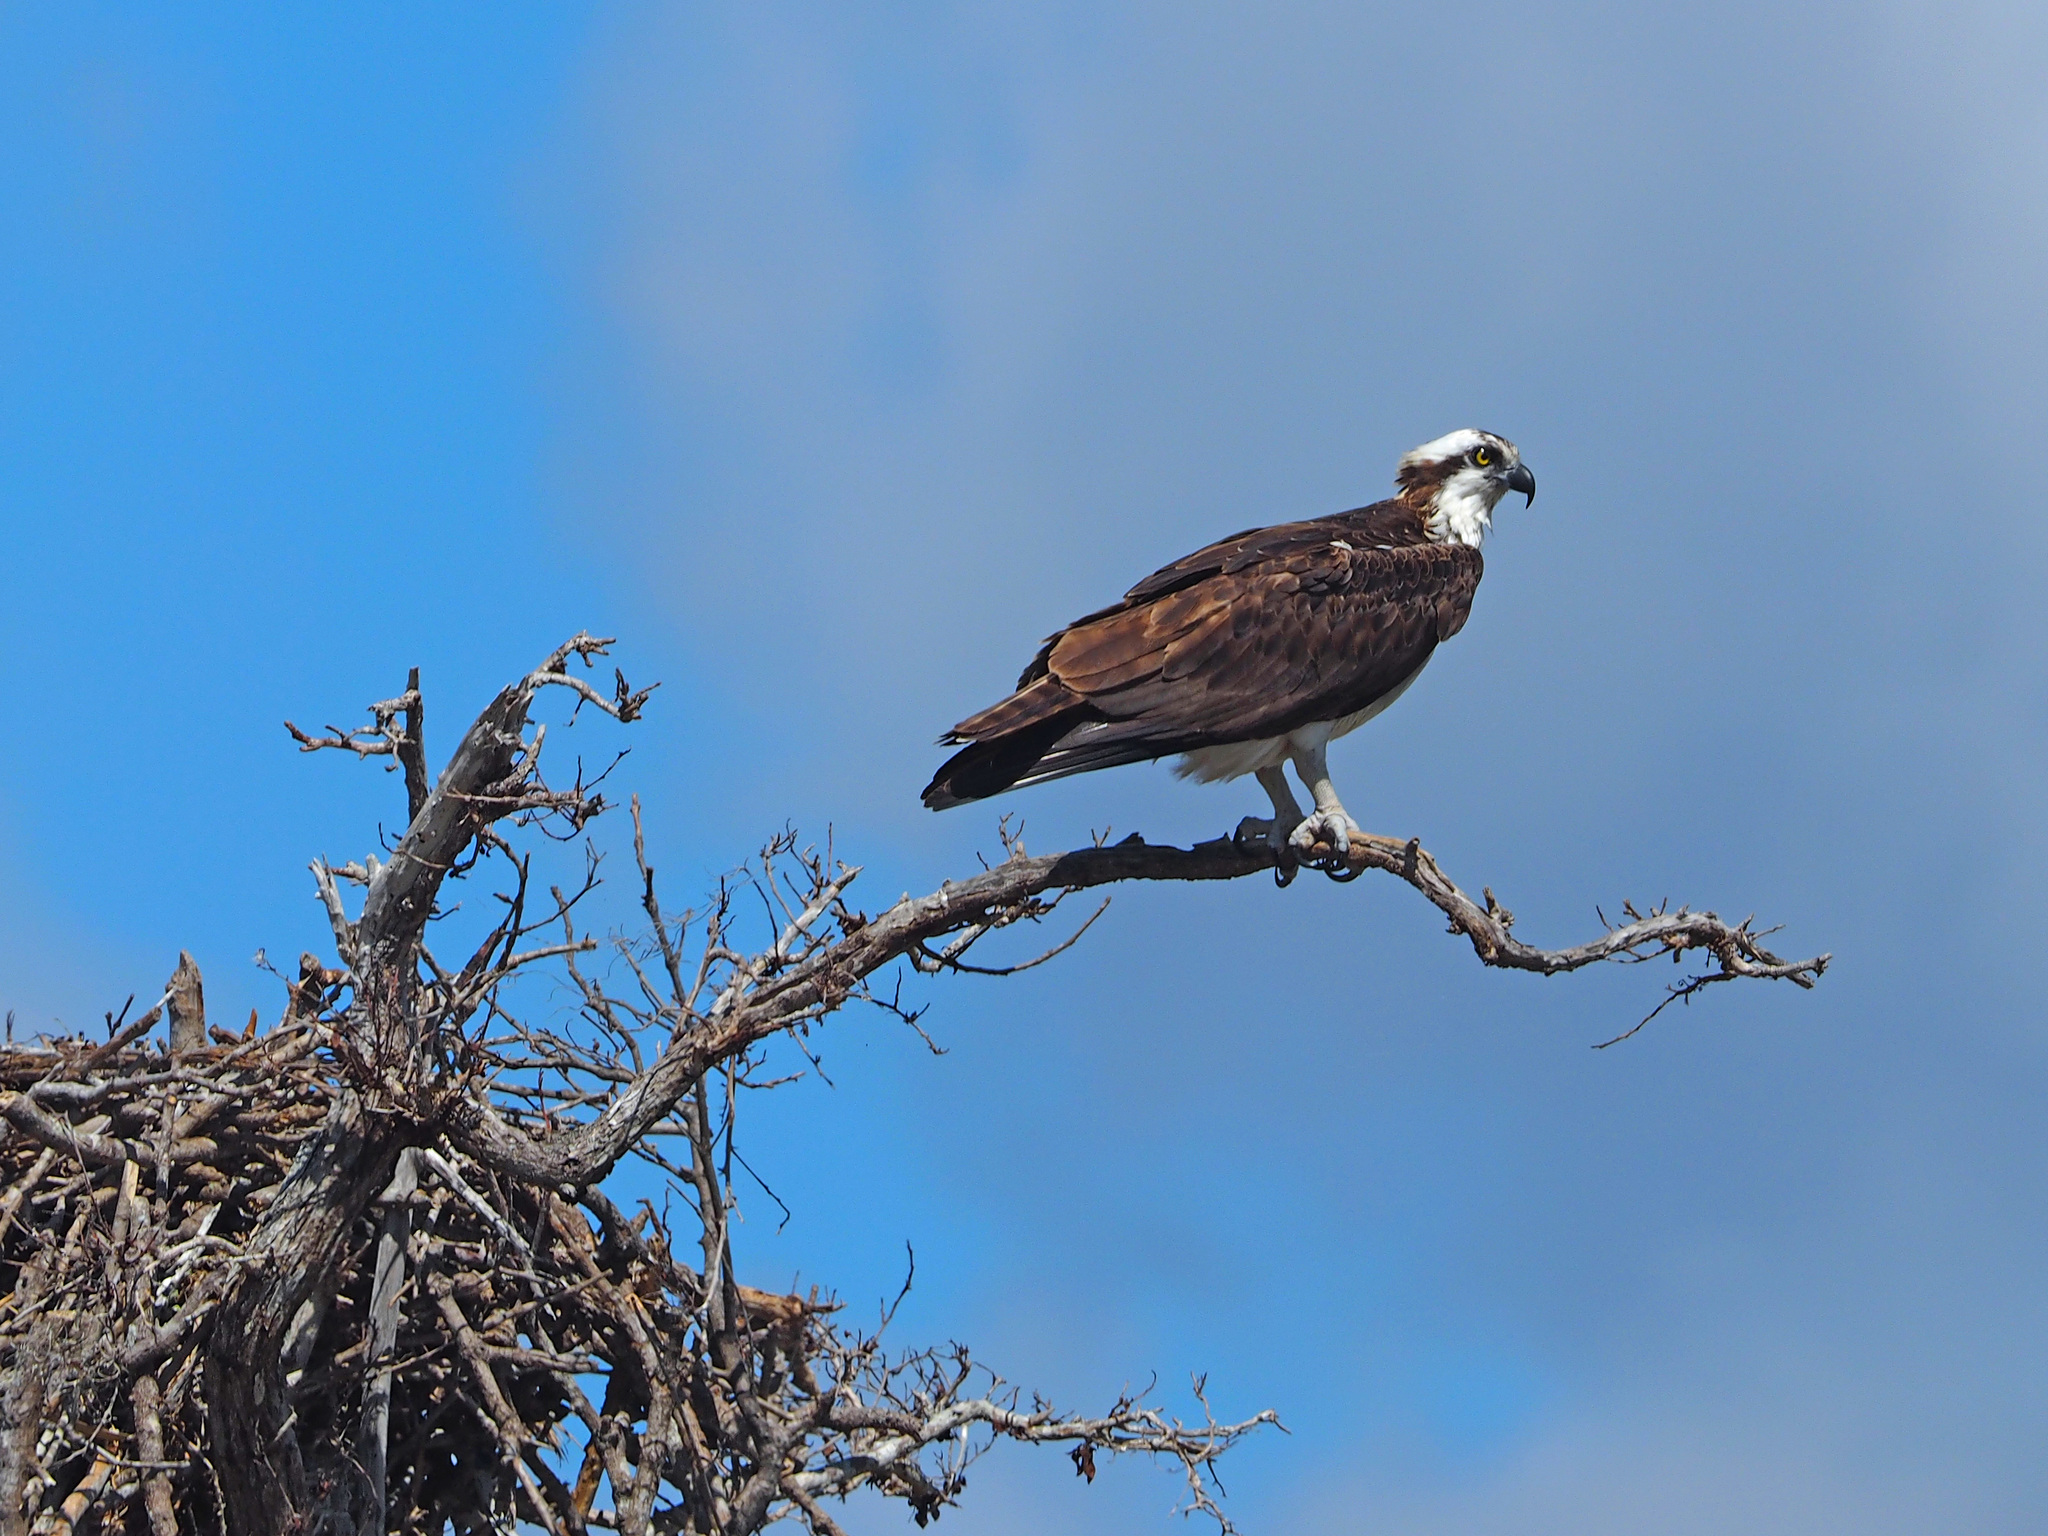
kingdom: Animalia
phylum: Chordata
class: Aves
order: Accipitriformes
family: Pandionidae
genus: Pandion
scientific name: Pandion haliaetus
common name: Osprey
